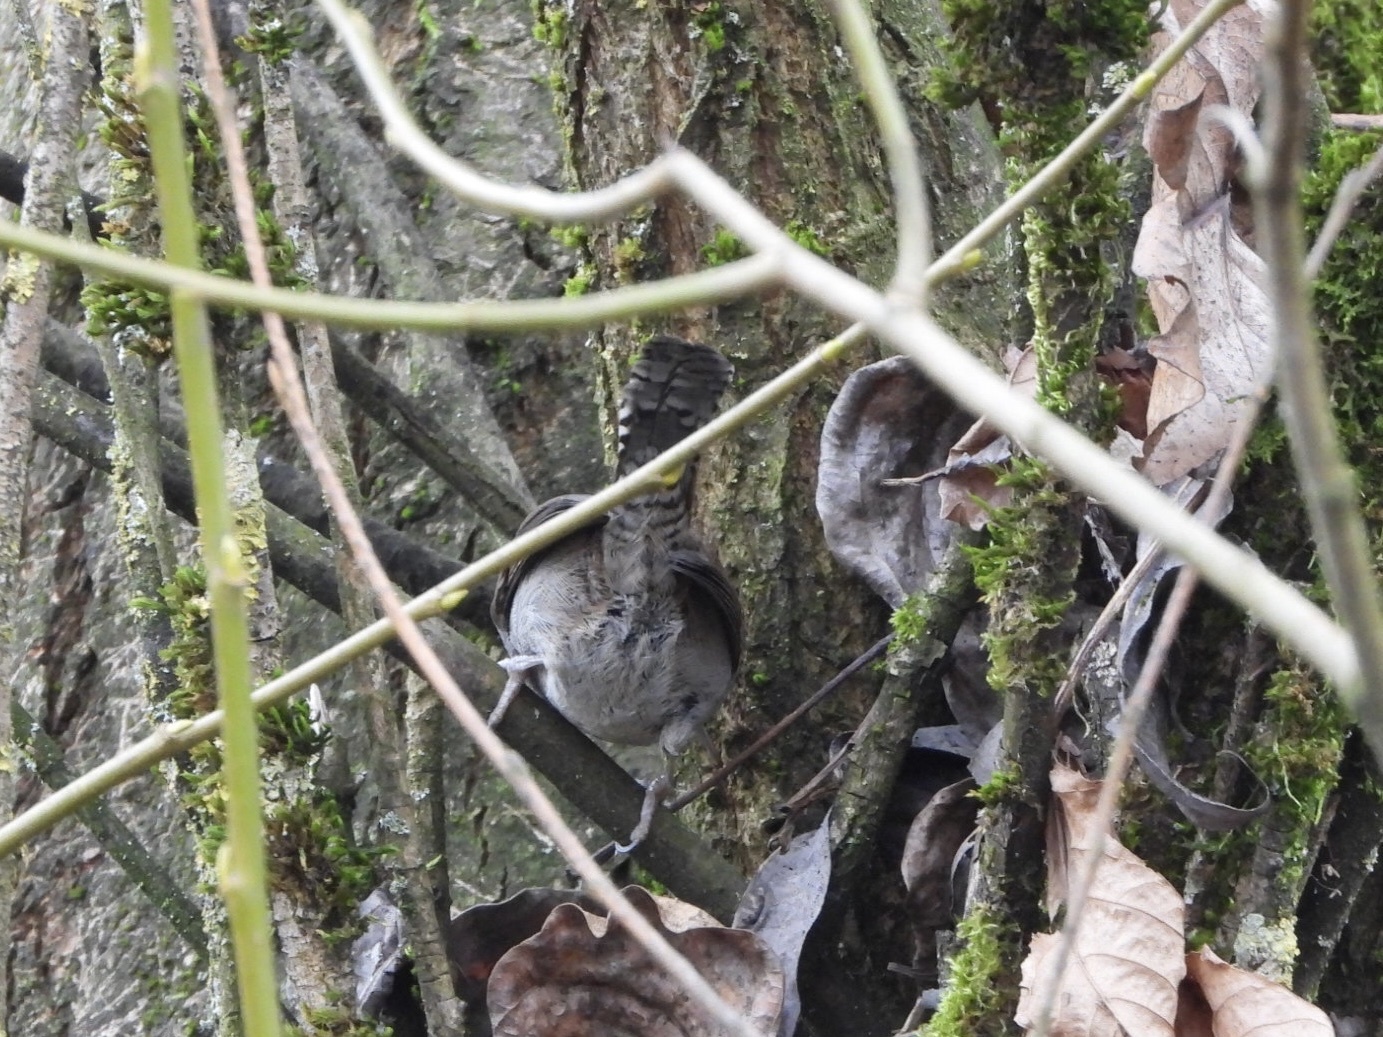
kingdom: Animalia
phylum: Chordata
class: Aves
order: Passeriformes
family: Troglodytidae
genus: Thryomanes
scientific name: Thryomanes bewickii
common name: Bewick's wren
